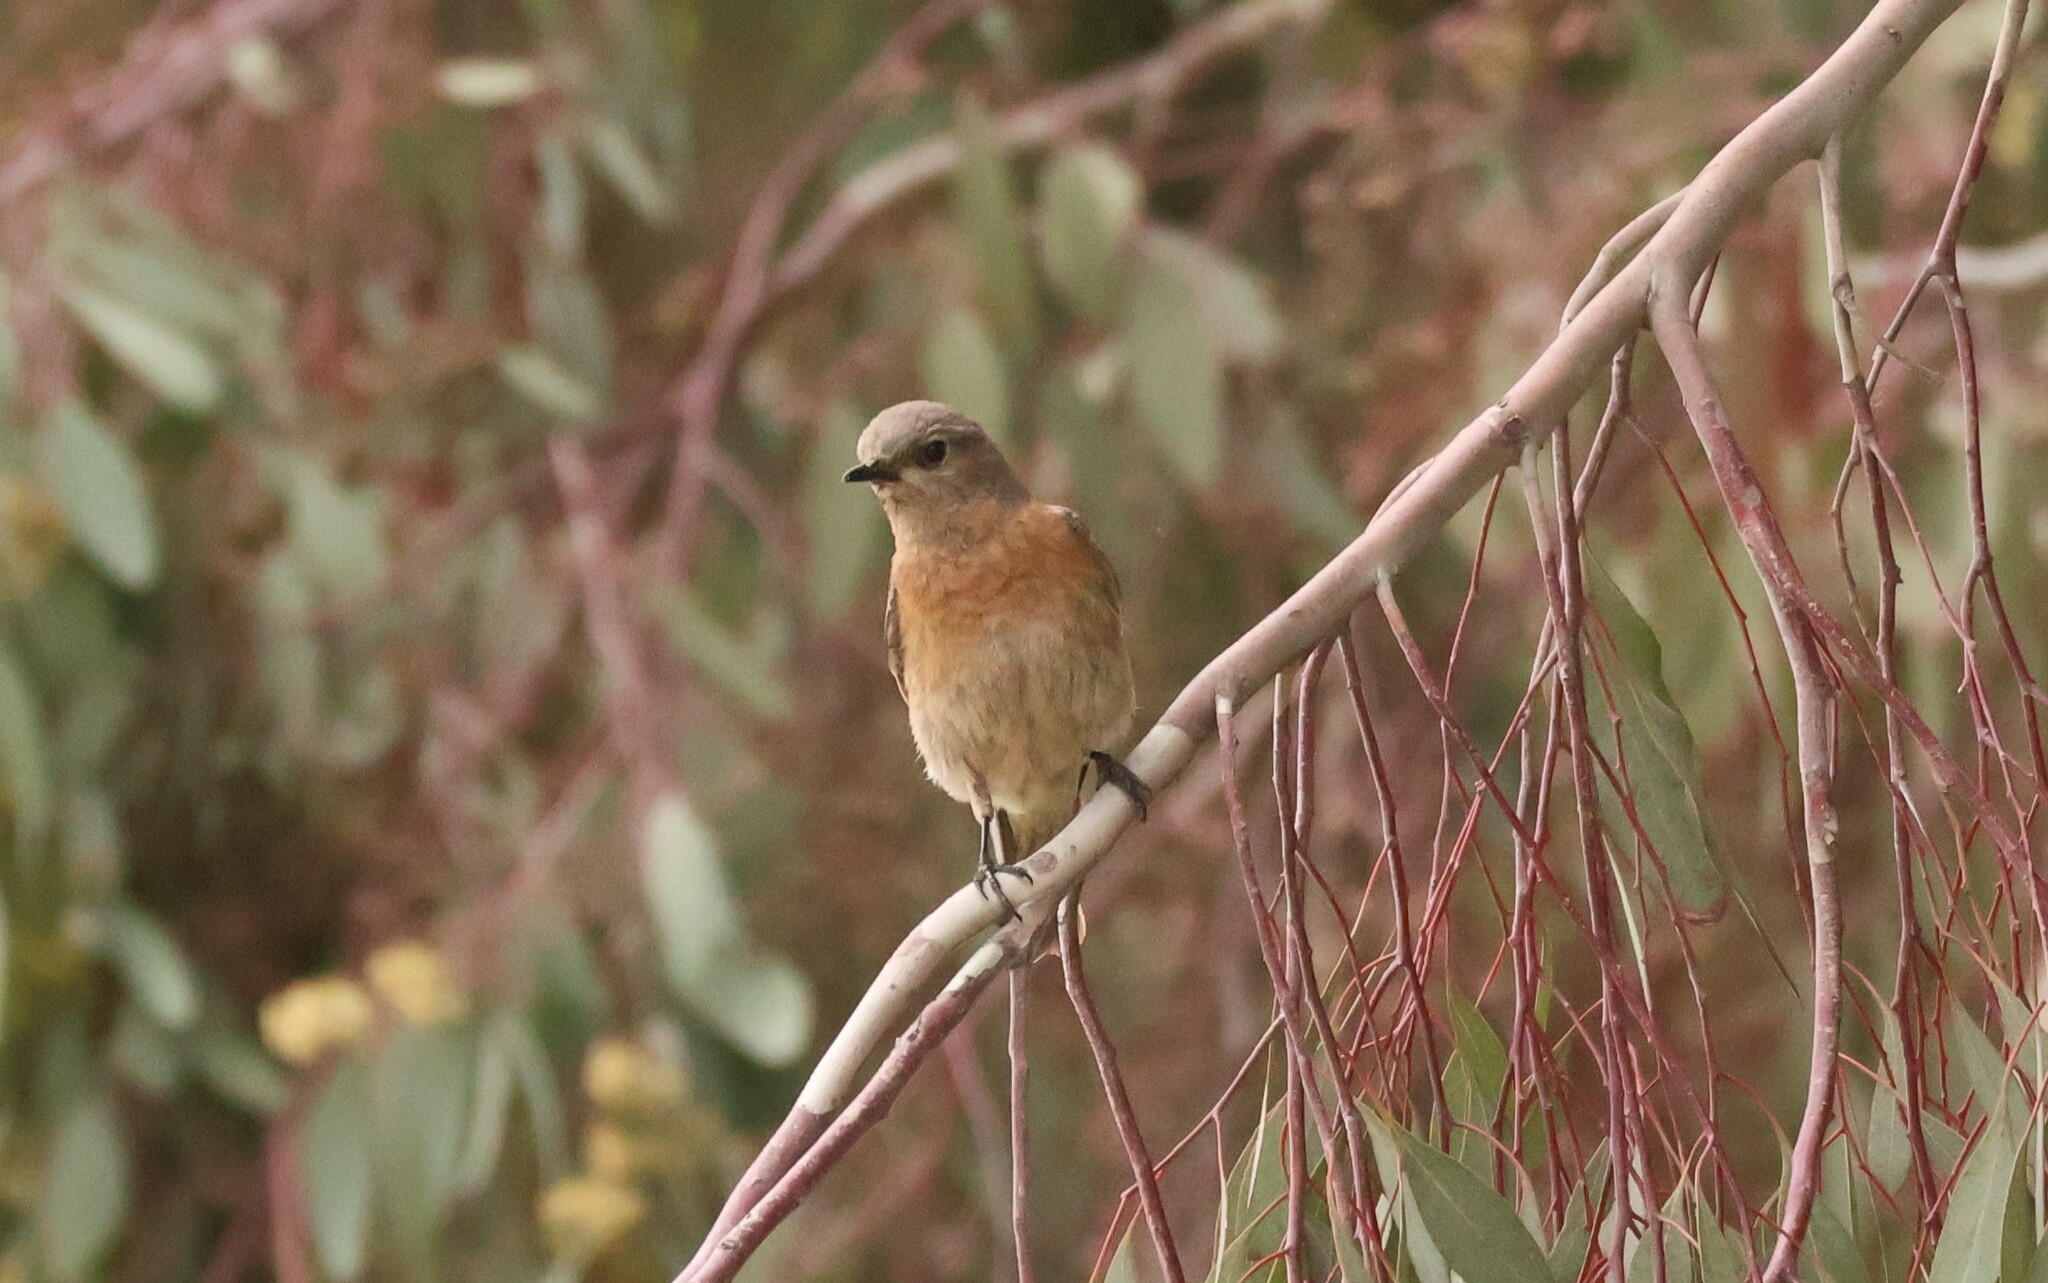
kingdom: Animalia
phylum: Chordata
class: Aves
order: Passeriformes
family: Turdidae
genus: Sialia
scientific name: Sialia mexicana
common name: Western bluebird
